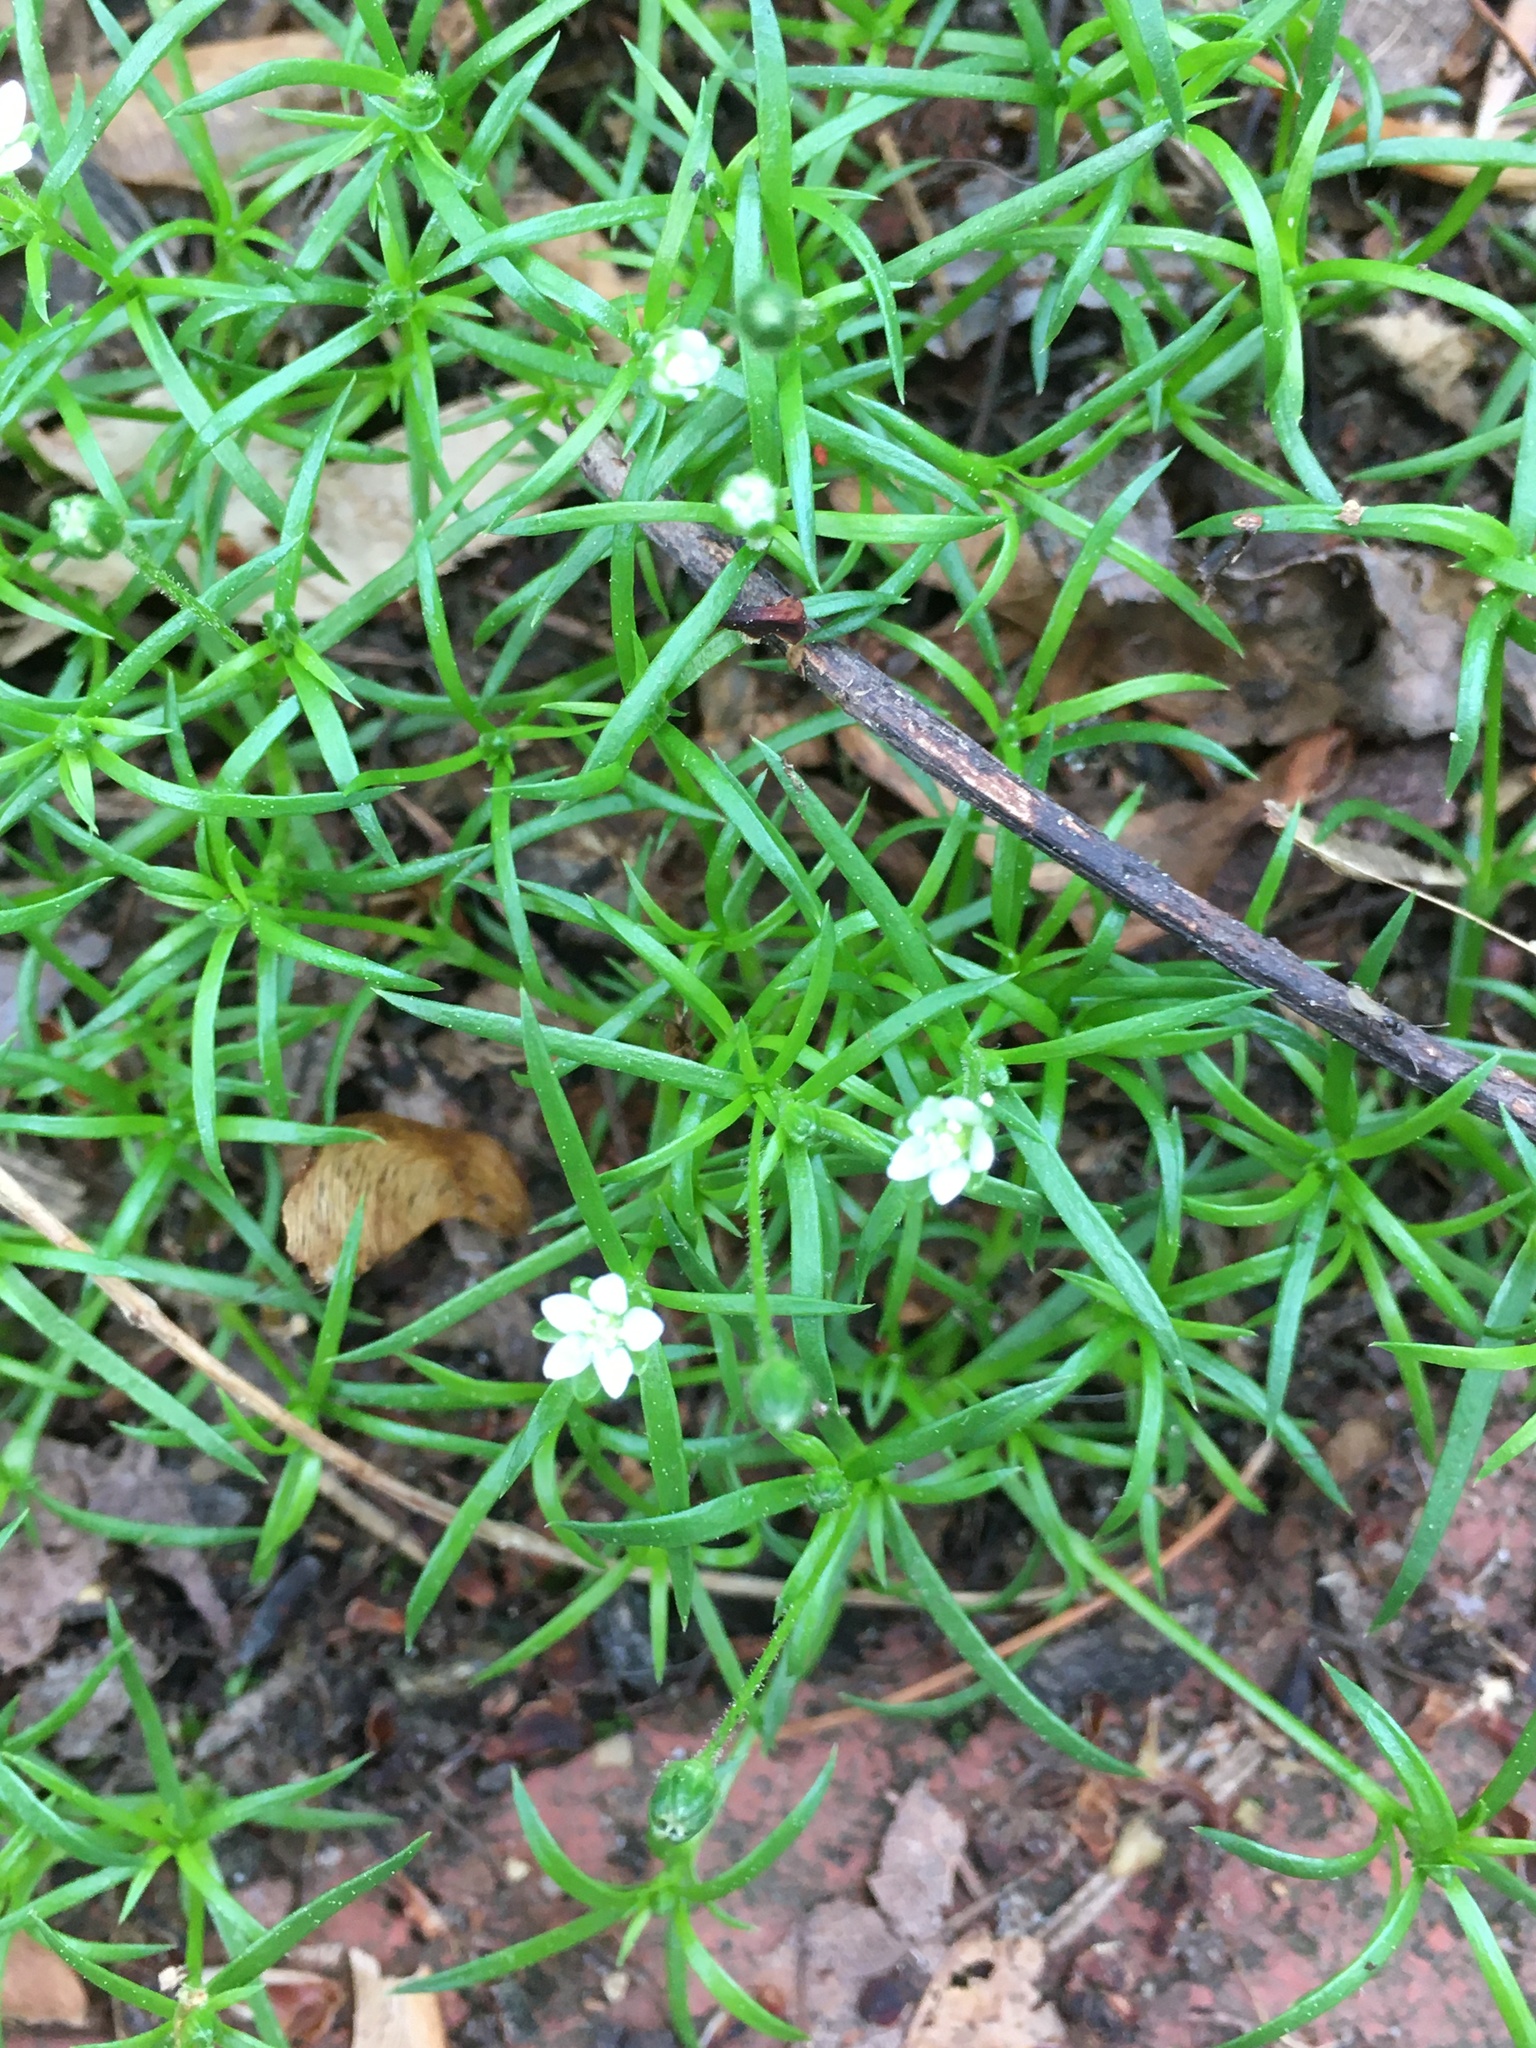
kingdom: Plantae
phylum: Tracheophyta
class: Magnoliopsida
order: Caryophyllales
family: Caryophyllaceae
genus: Spergula
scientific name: Spergula arvensis
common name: Corn spurrey
